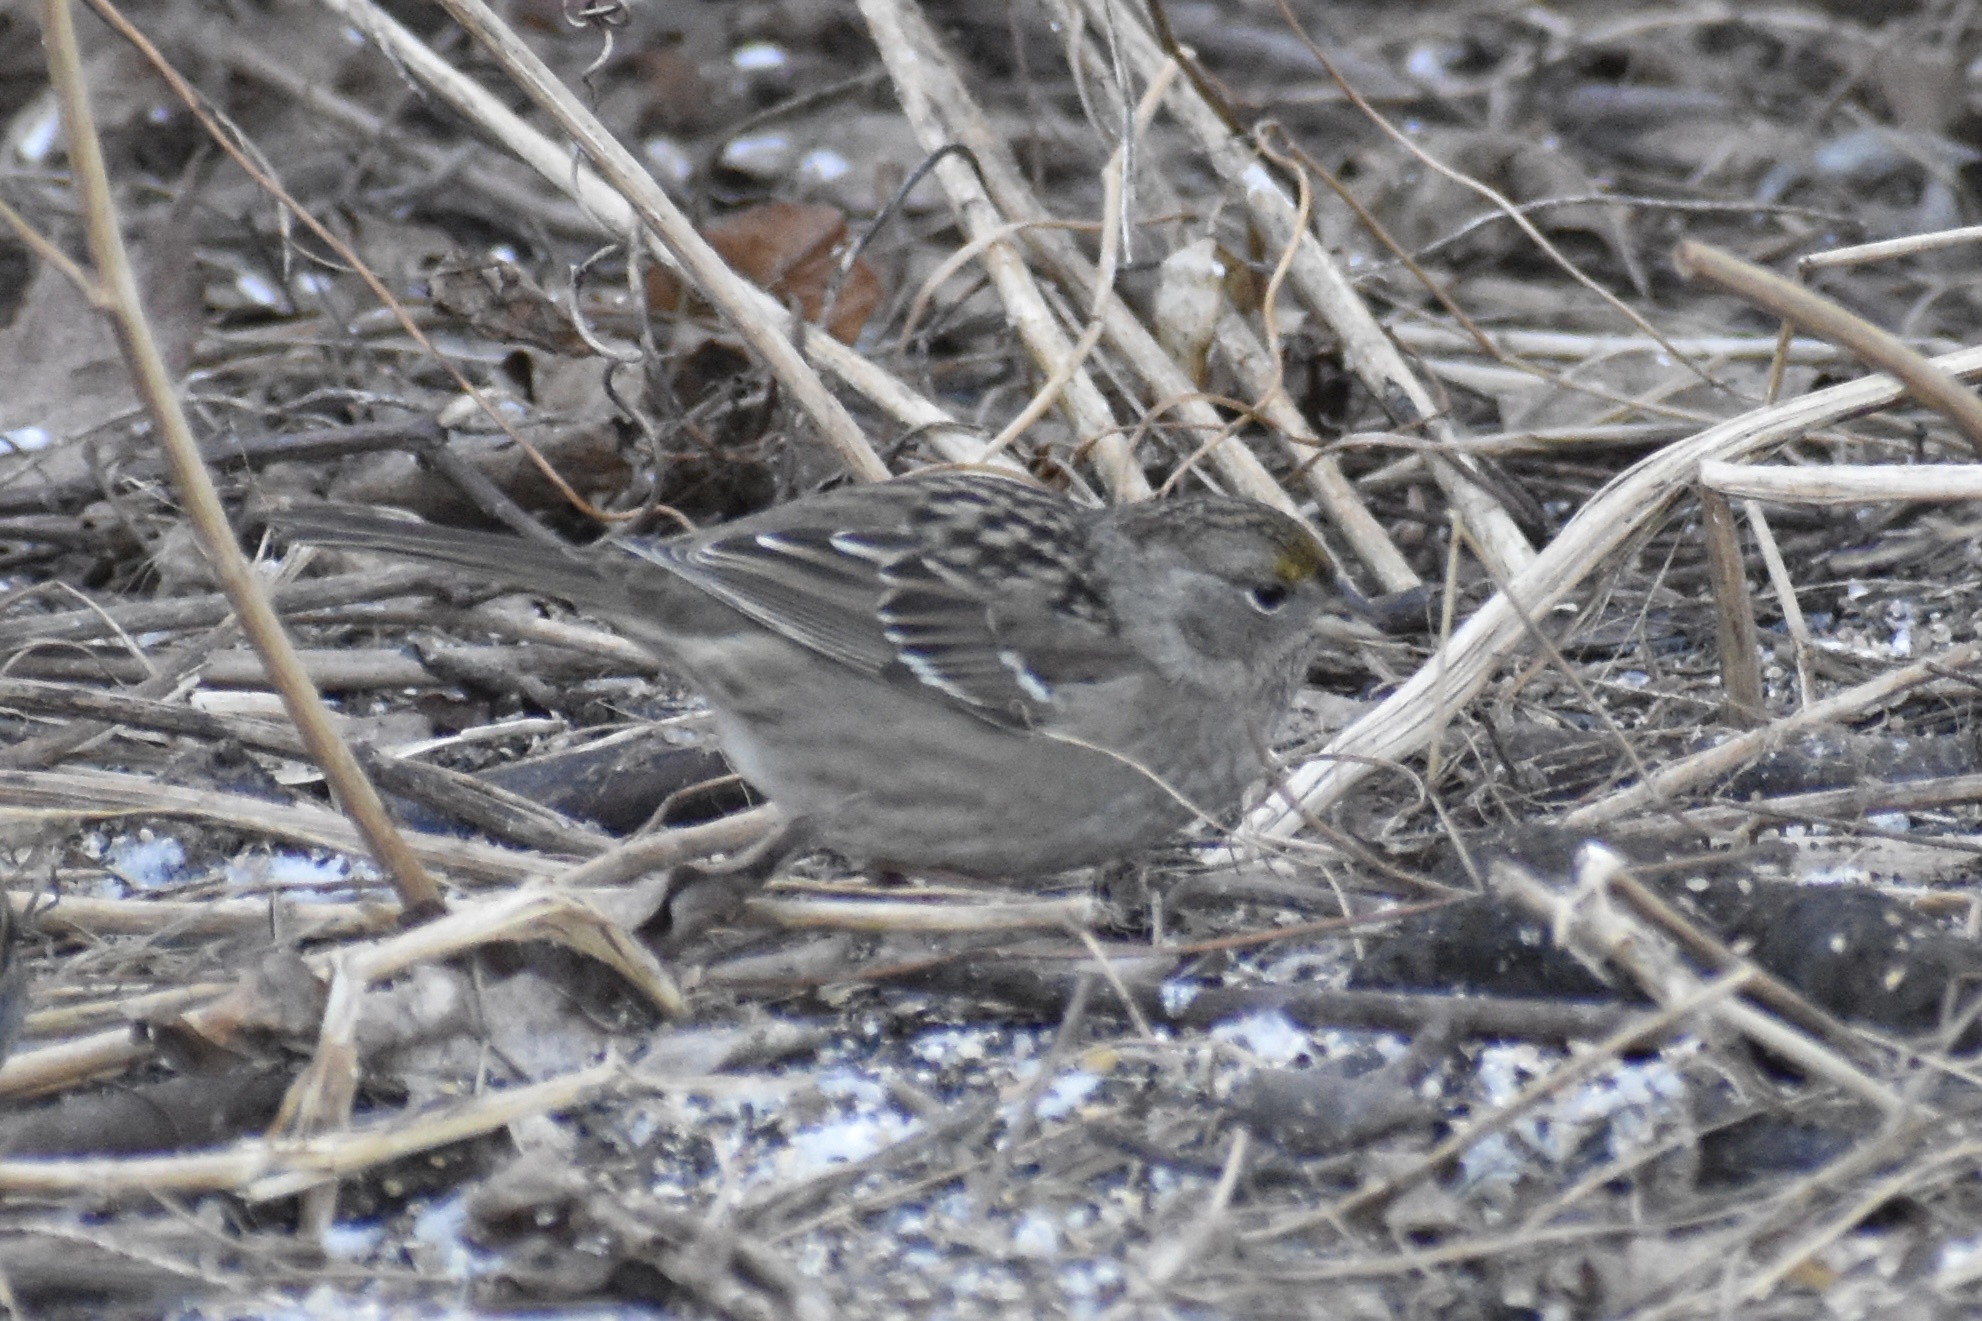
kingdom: Animalia
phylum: Chordata
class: Aves
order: Passeriformes
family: Passerellidae
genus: Zonotrichia
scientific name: Zonotrichia atricapilla
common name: Golden-crowned sparrow
